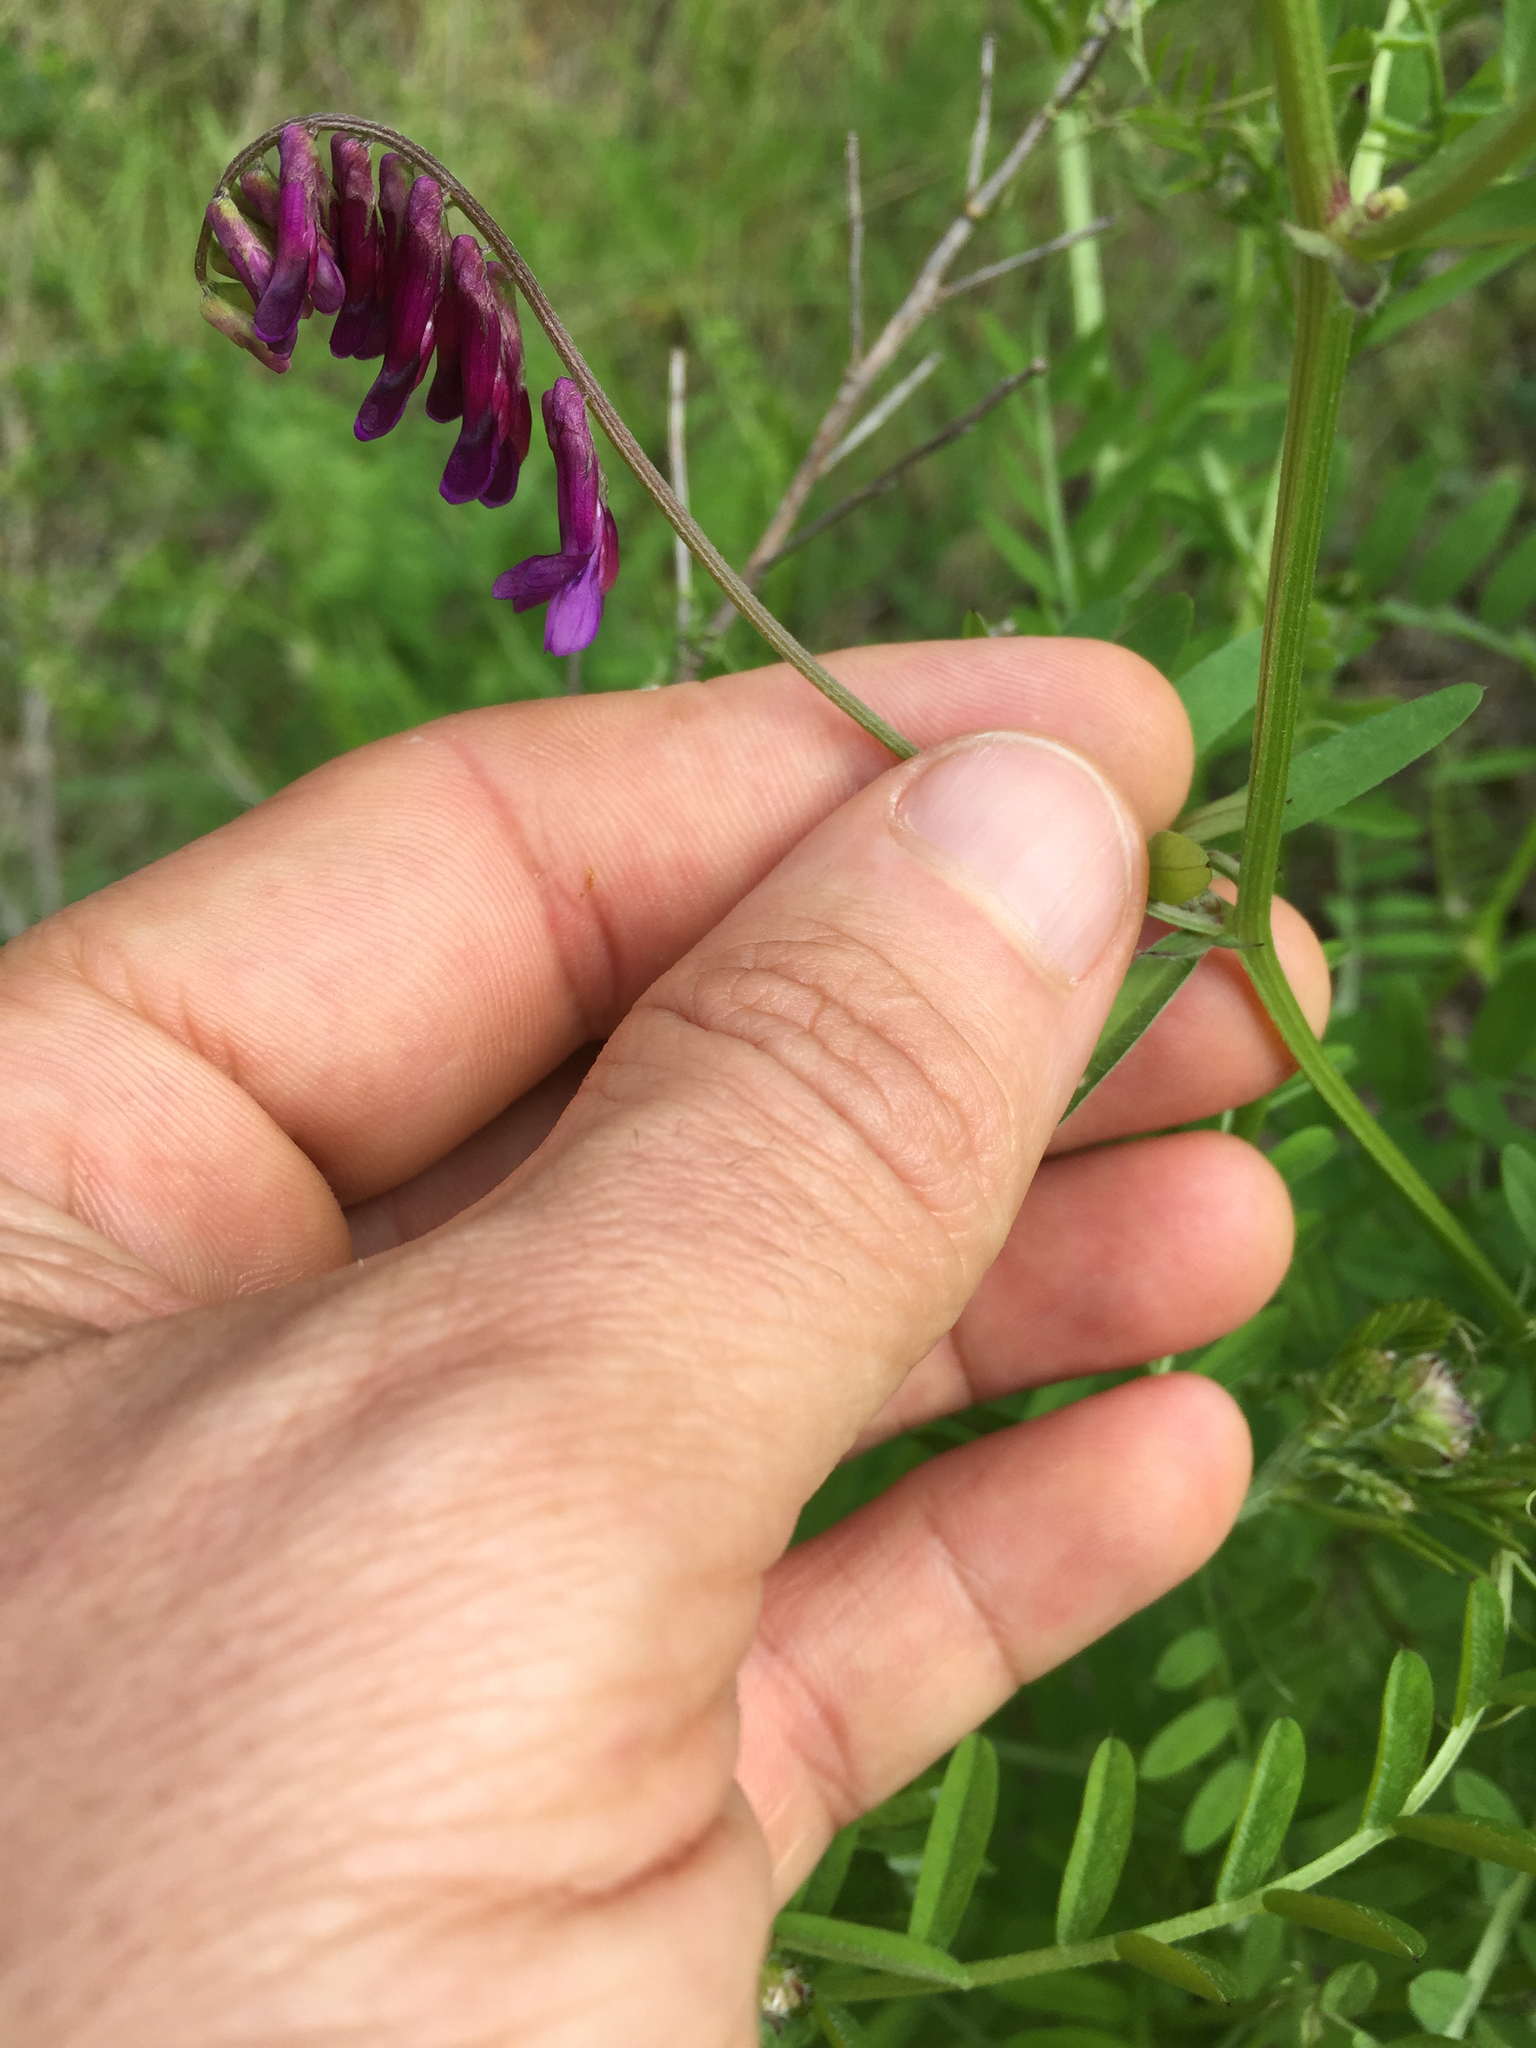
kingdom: Plantae
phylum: Tracheophyta
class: Magnoliopsida
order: Fabales
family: Fabaceae
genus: Vicia
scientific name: Vicia villosa
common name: Fodder vetch
